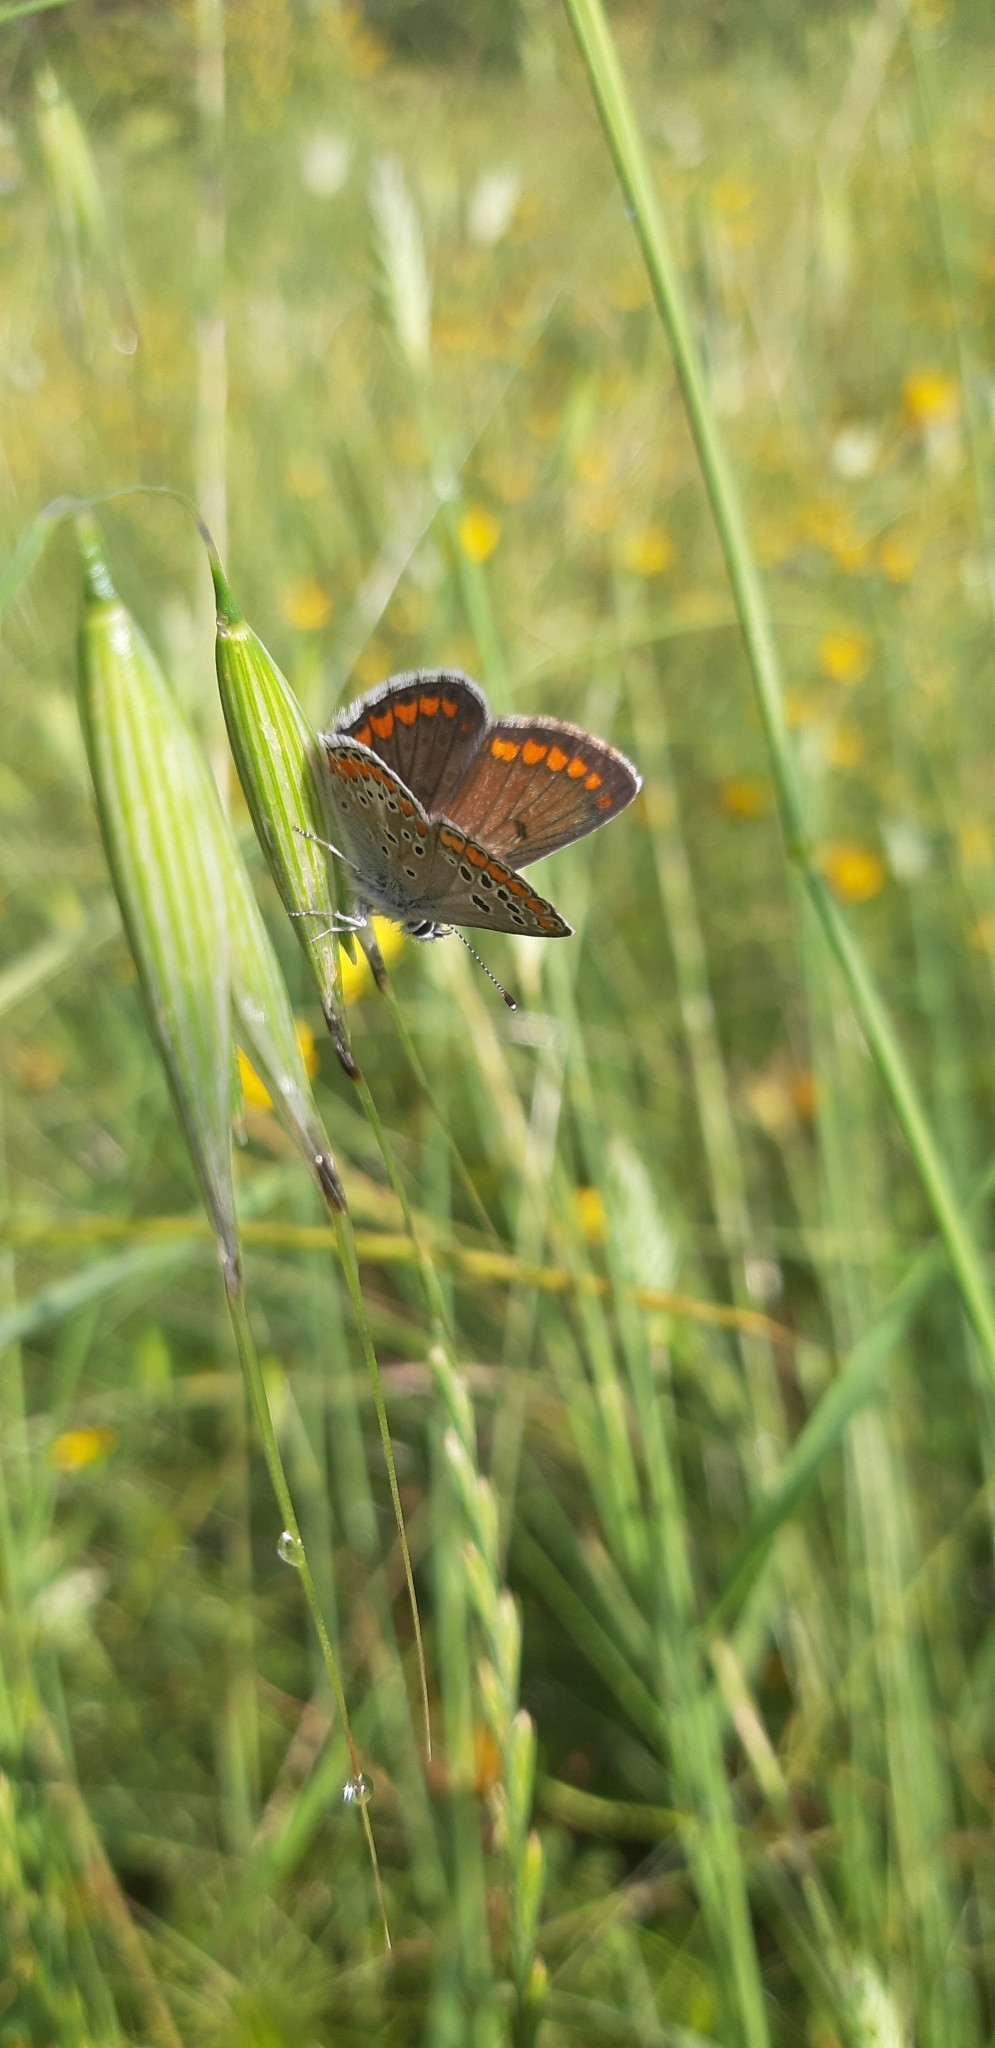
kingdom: Animalia
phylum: Arthropoda
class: Insecta
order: Lepidoptera
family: Lycaenidae
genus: Aricia
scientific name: Aricia agestis
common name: Brown argus
